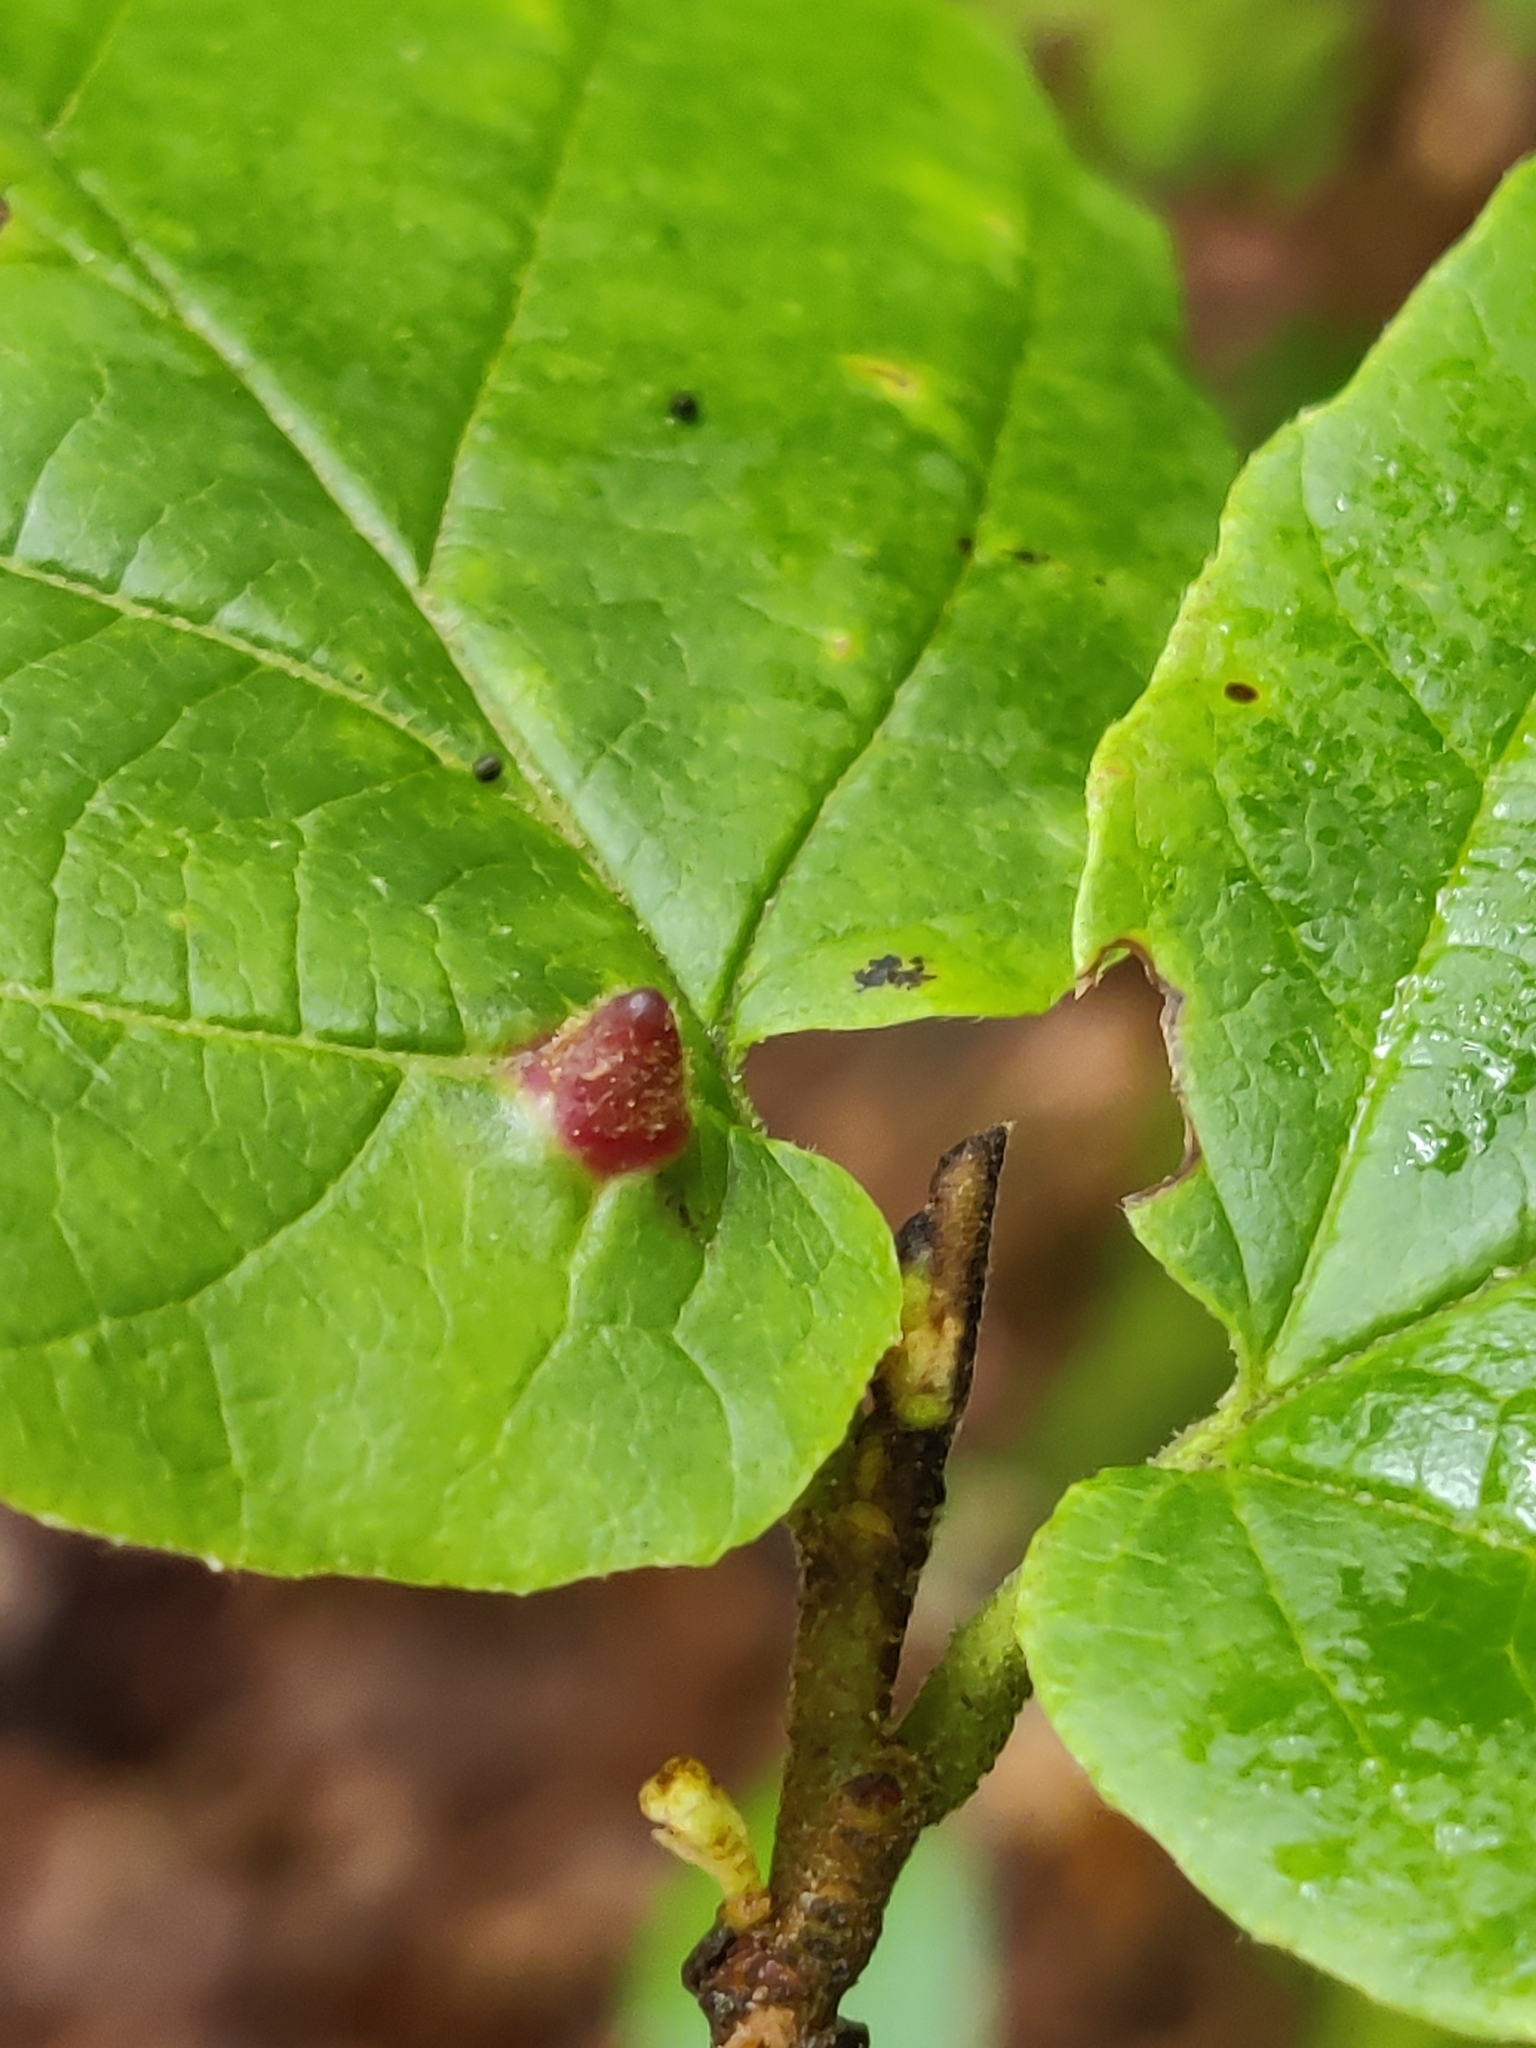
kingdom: Animalia
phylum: Arthropoda
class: Insecta
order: Hemiptera
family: Aphididae
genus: Hormaphis
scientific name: Hormaphis hamamelidis
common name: Witch-hazel cone gall aphid
